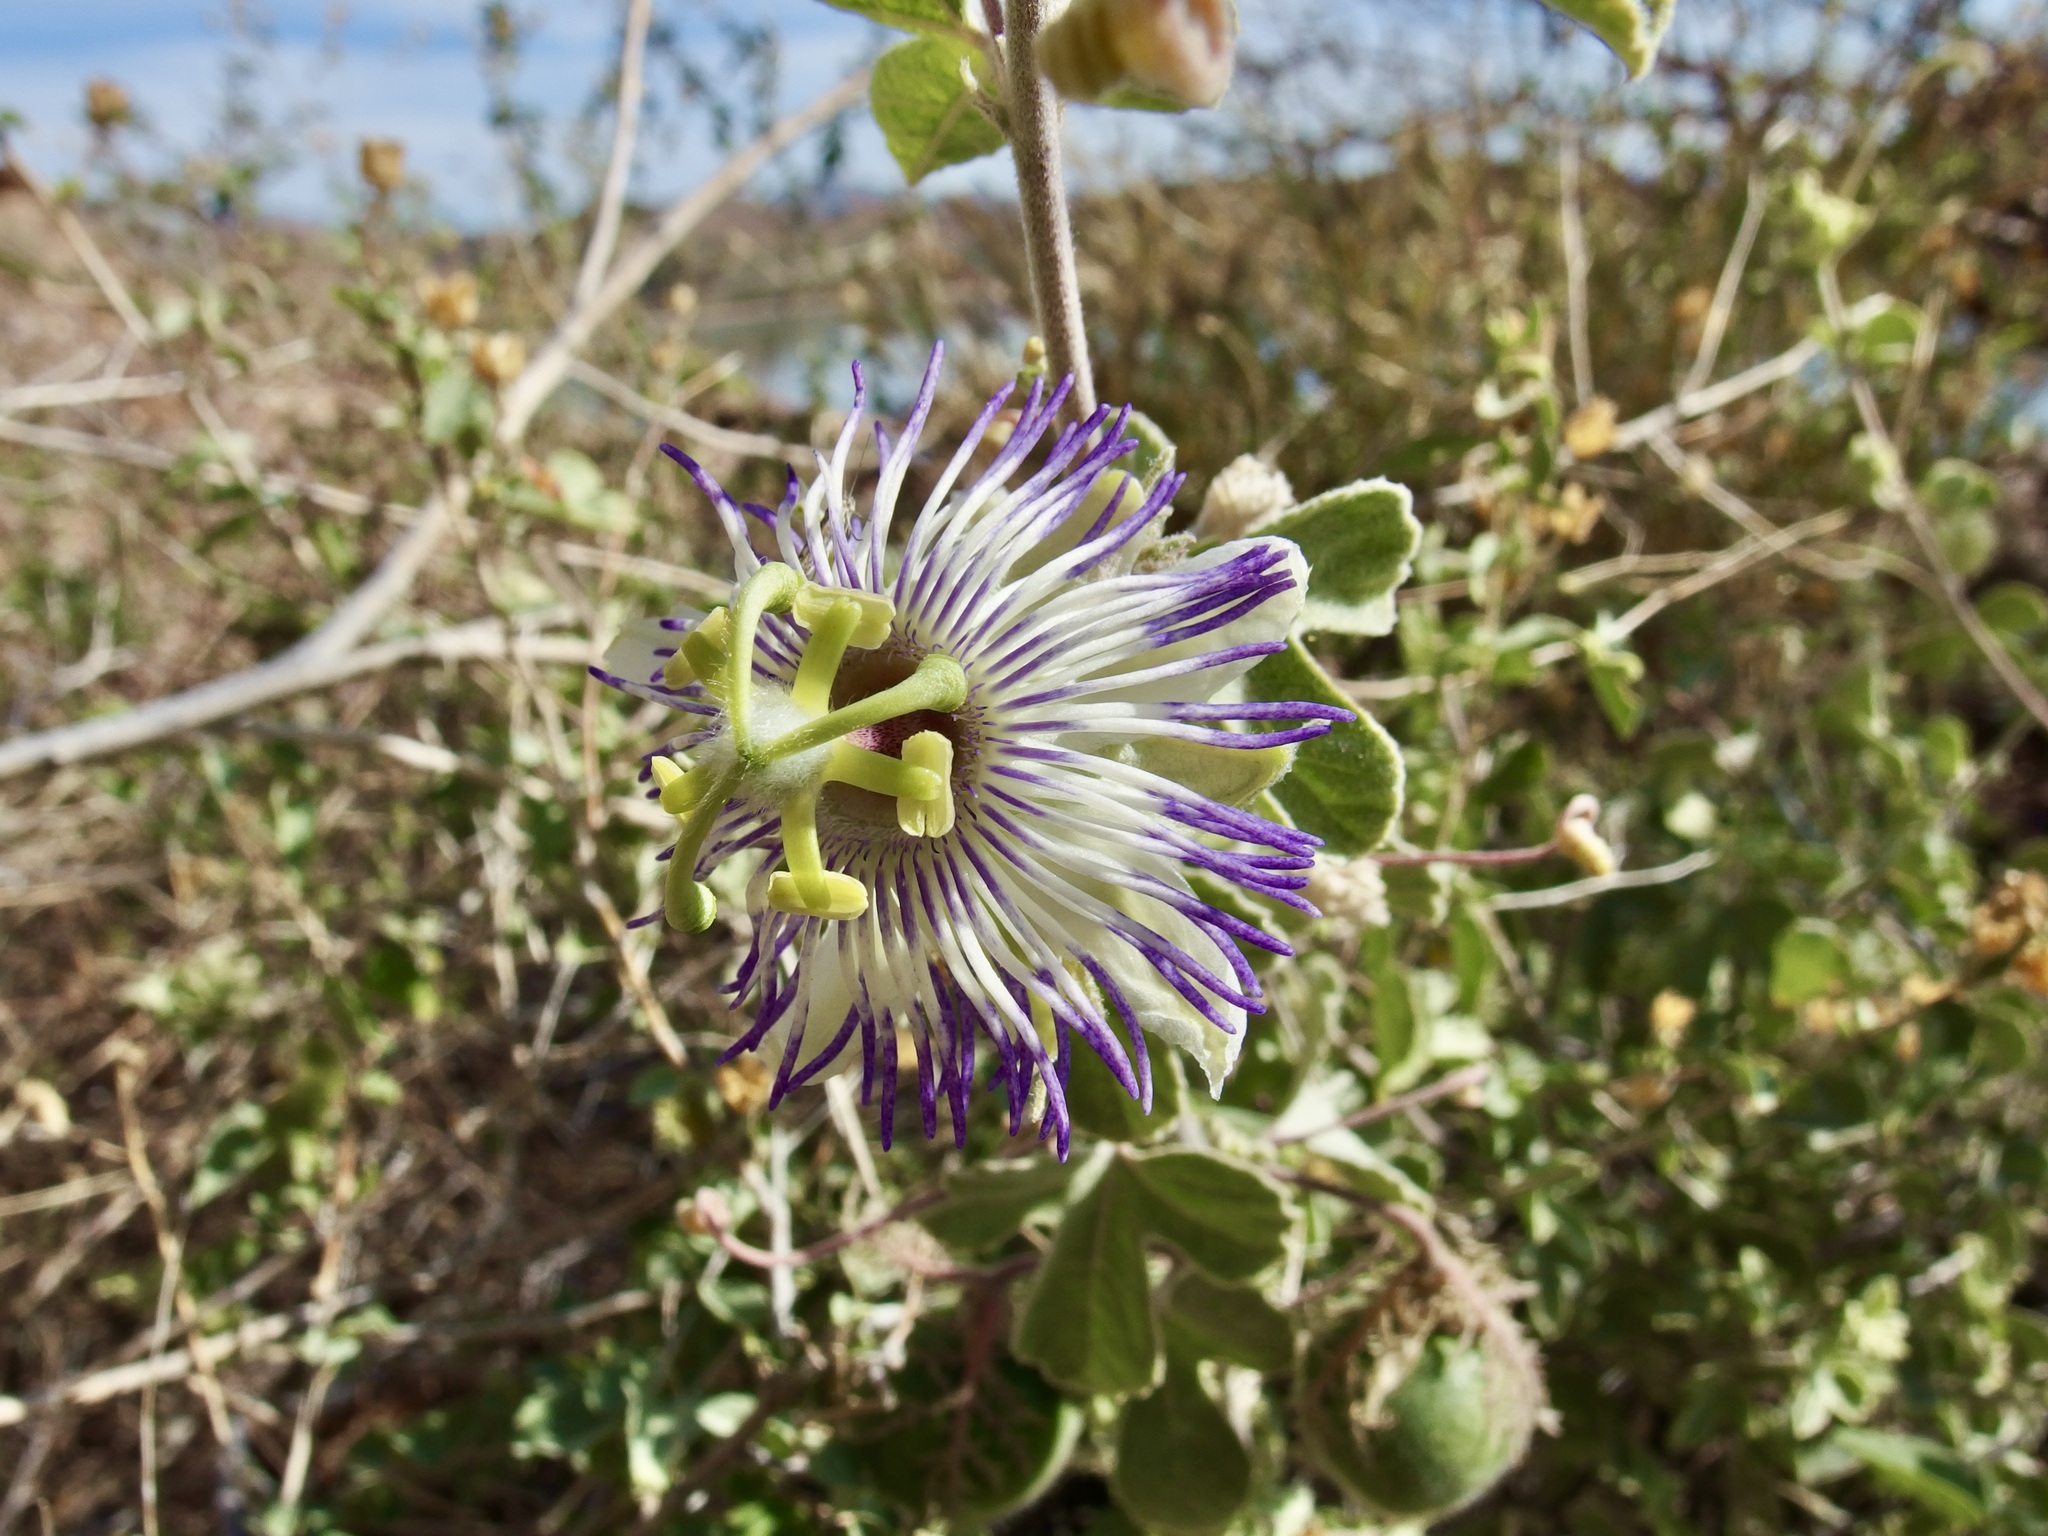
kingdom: Plantae
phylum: Tracheophyta
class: Magnoliopsida
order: Malpighiales
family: Passifloraceae
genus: Passiflora
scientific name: Passiflora arida
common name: Desert passionflower
